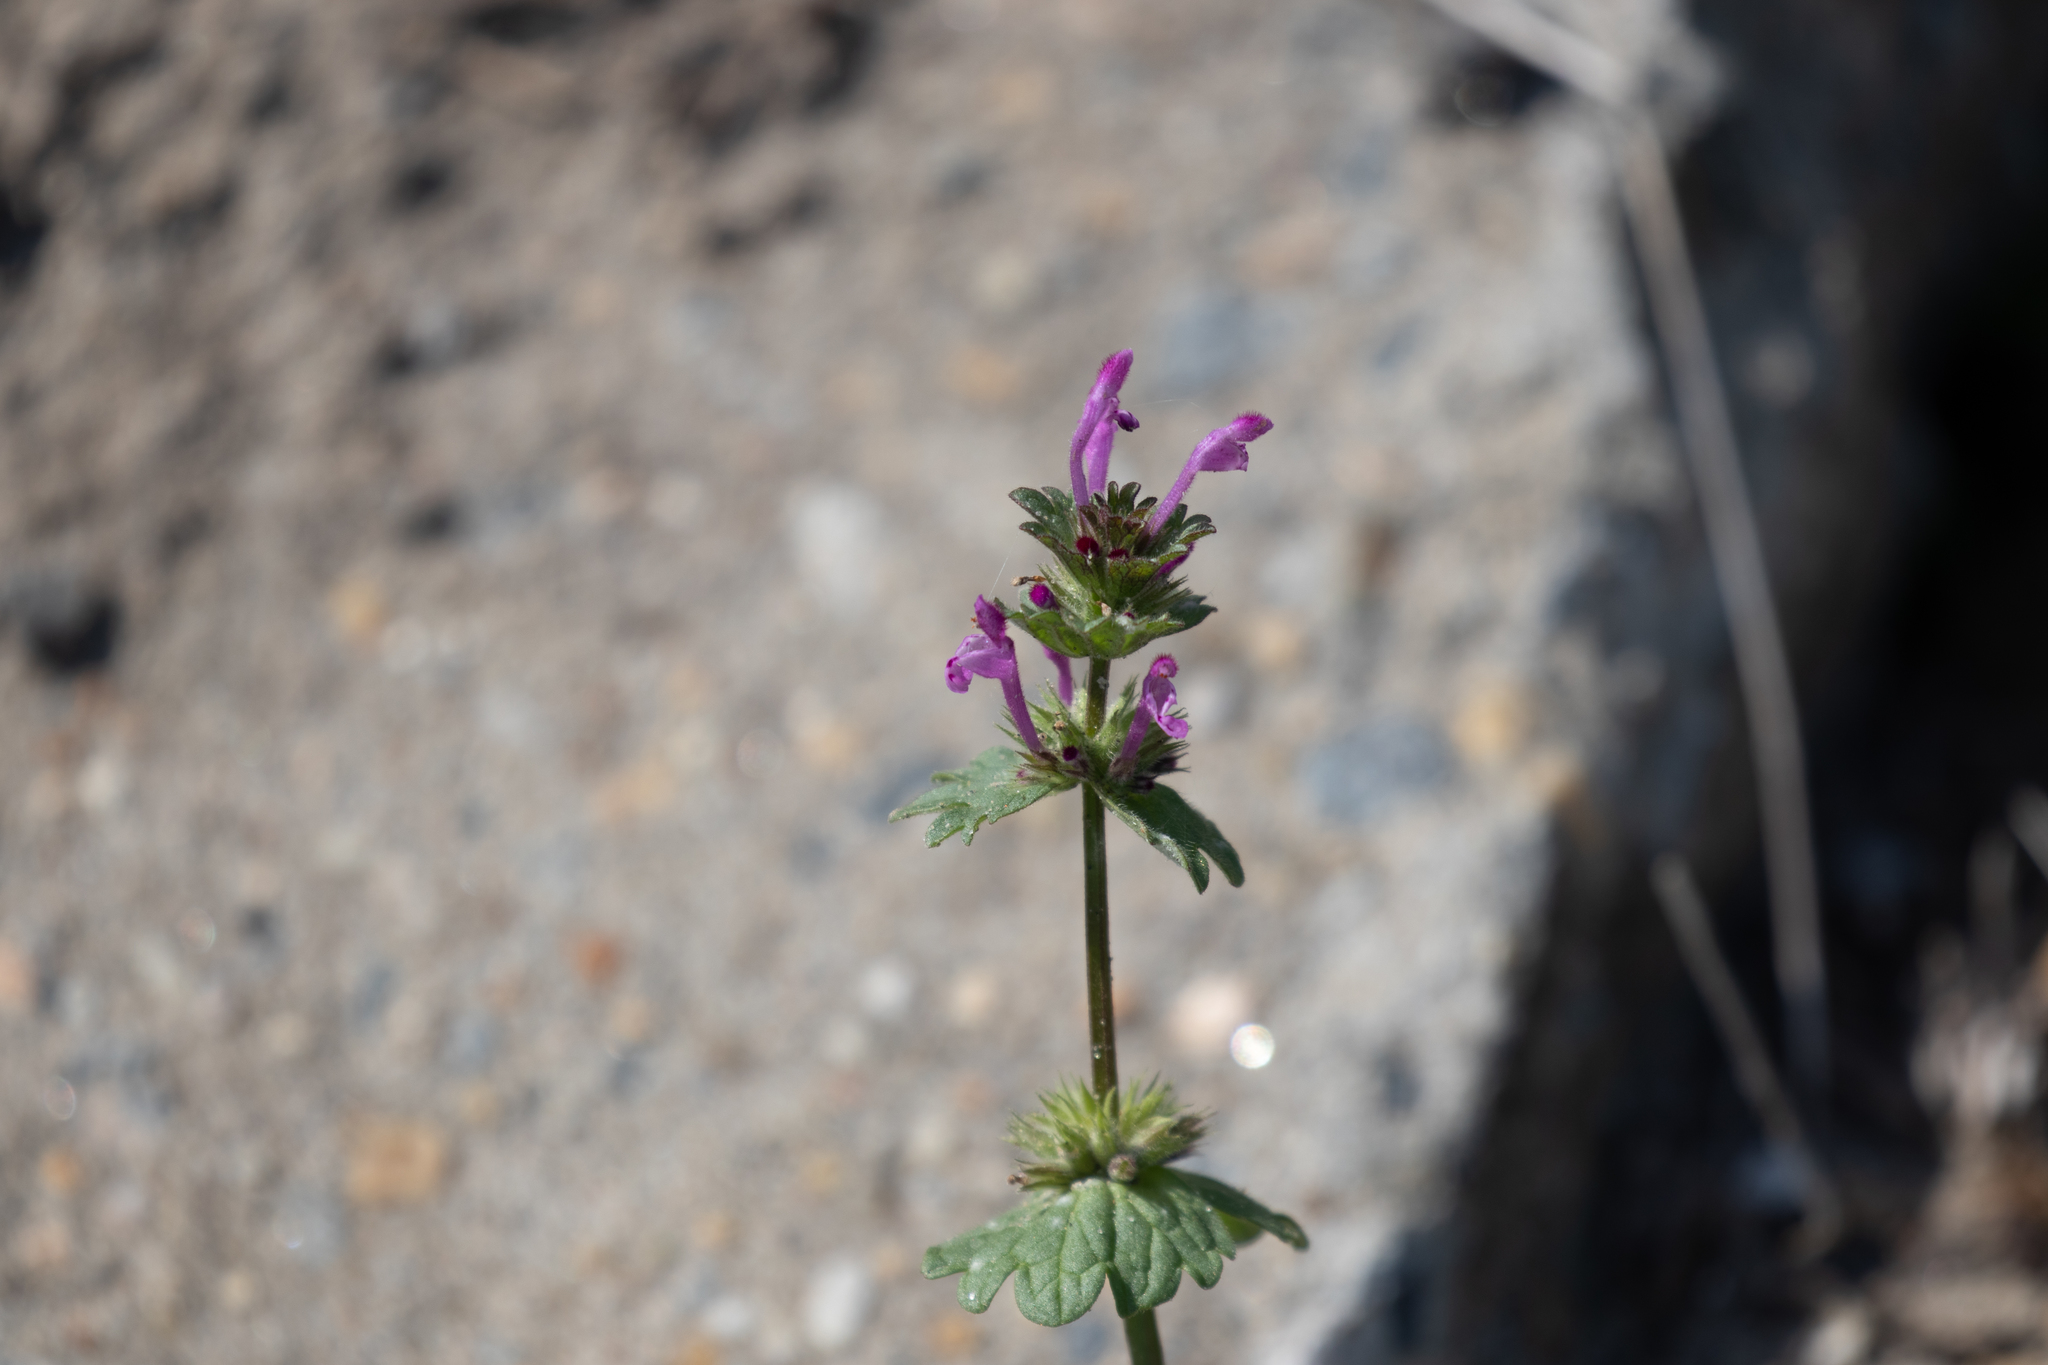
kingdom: Plantae
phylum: Tracheophyta
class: Magnoliopsida
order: Lamiales
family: Lamiaceae
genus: Lamium
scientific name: Lamium amplexicaule
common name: Henbit dead-nettle
